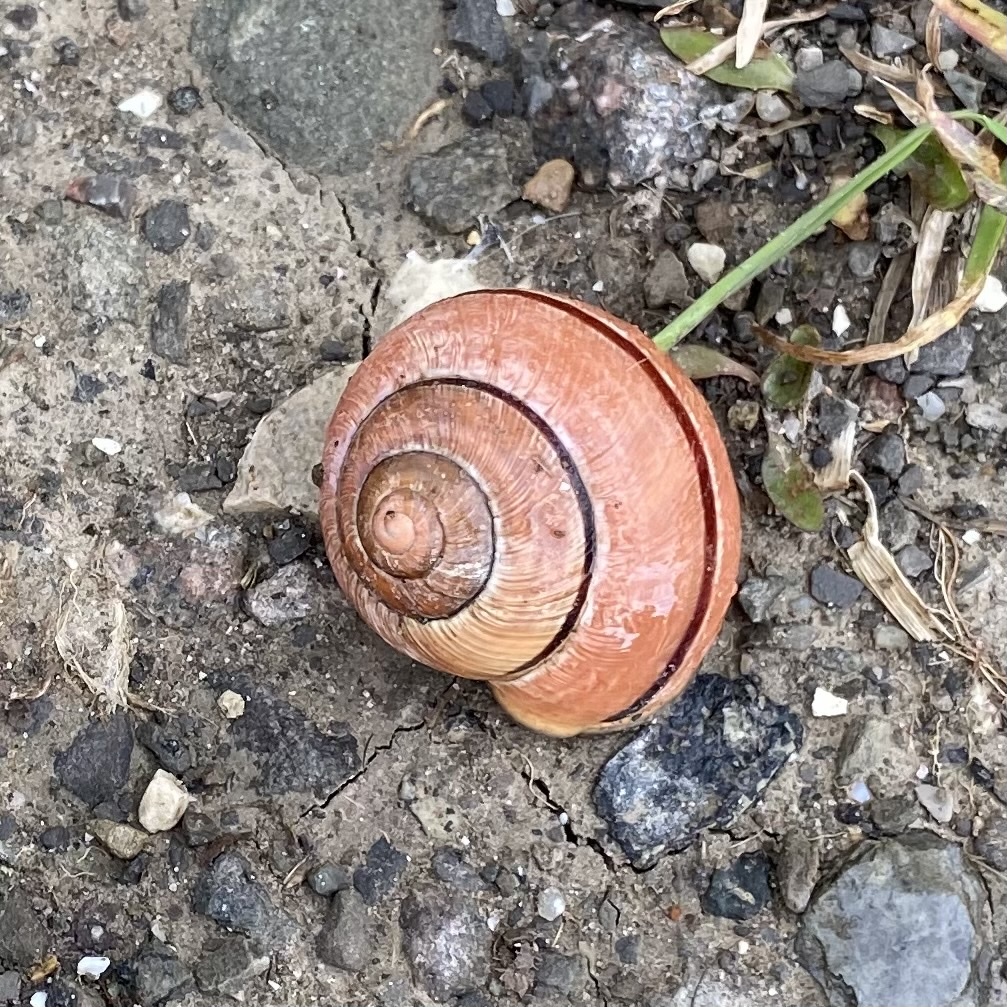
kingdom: Animalia
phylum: Mollusca
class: Gastropoda
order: Stylommatophora
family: Helicidae
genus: Cepaea
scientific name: Cepaea nemoralis
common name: Grovesnail
